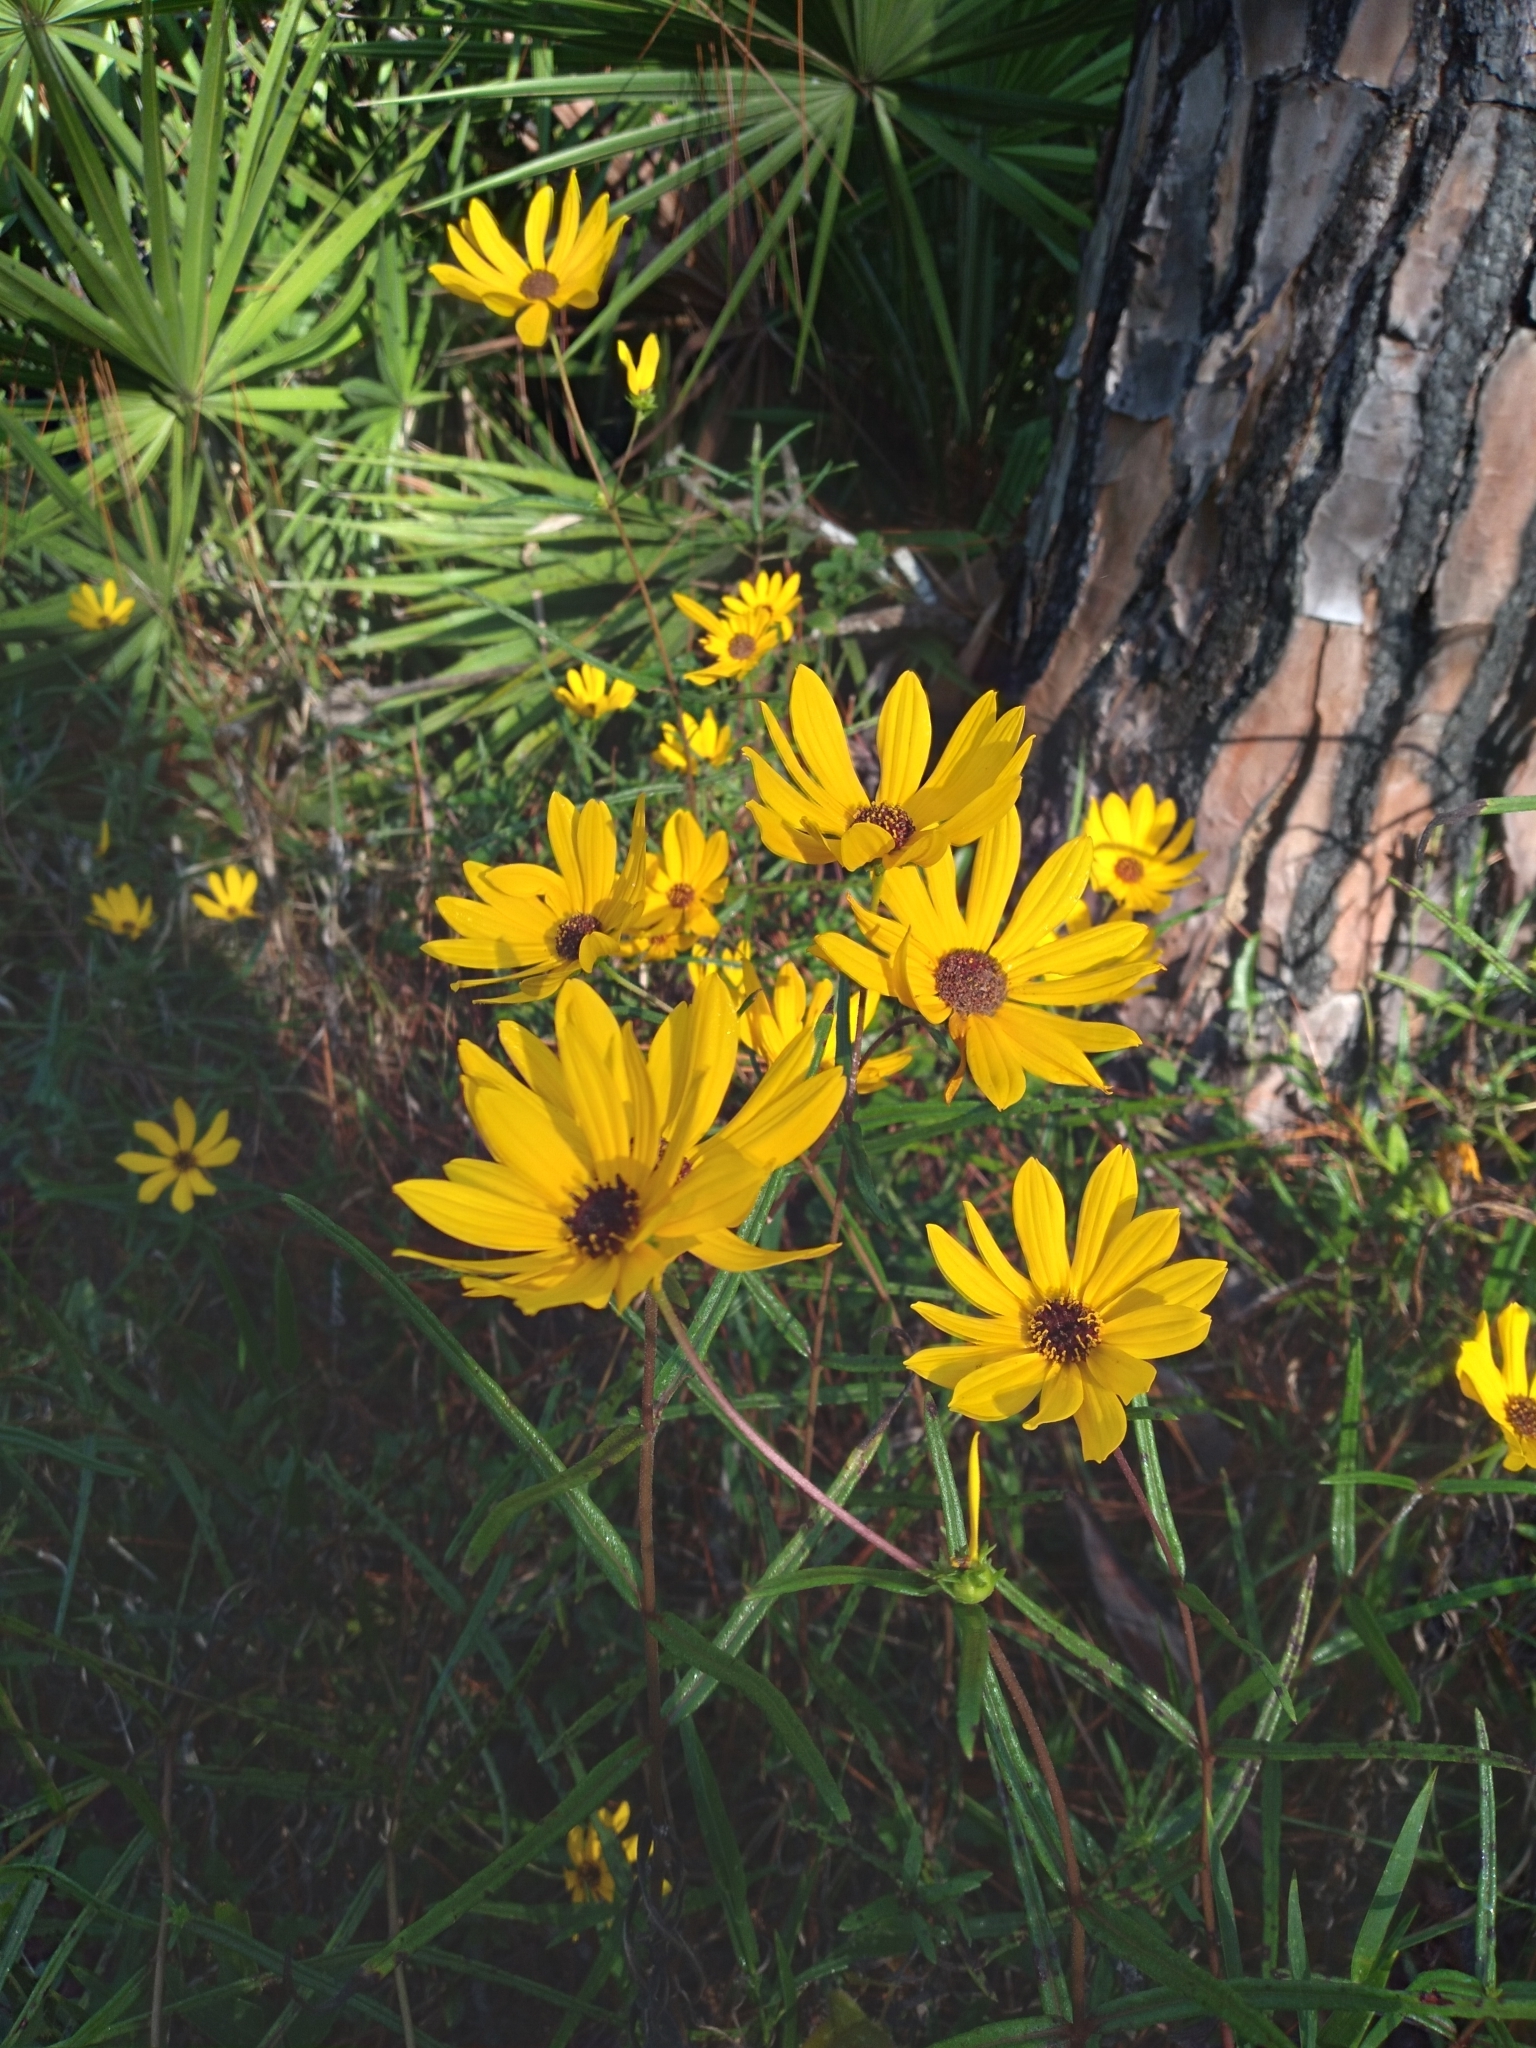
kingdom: Plantae
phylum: Tracheophyta
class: Magnoliopsida
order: Asterales
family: Asteraceae
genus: Helianthus
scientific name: Helianthus angustifolius
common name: Swamp sunflower
